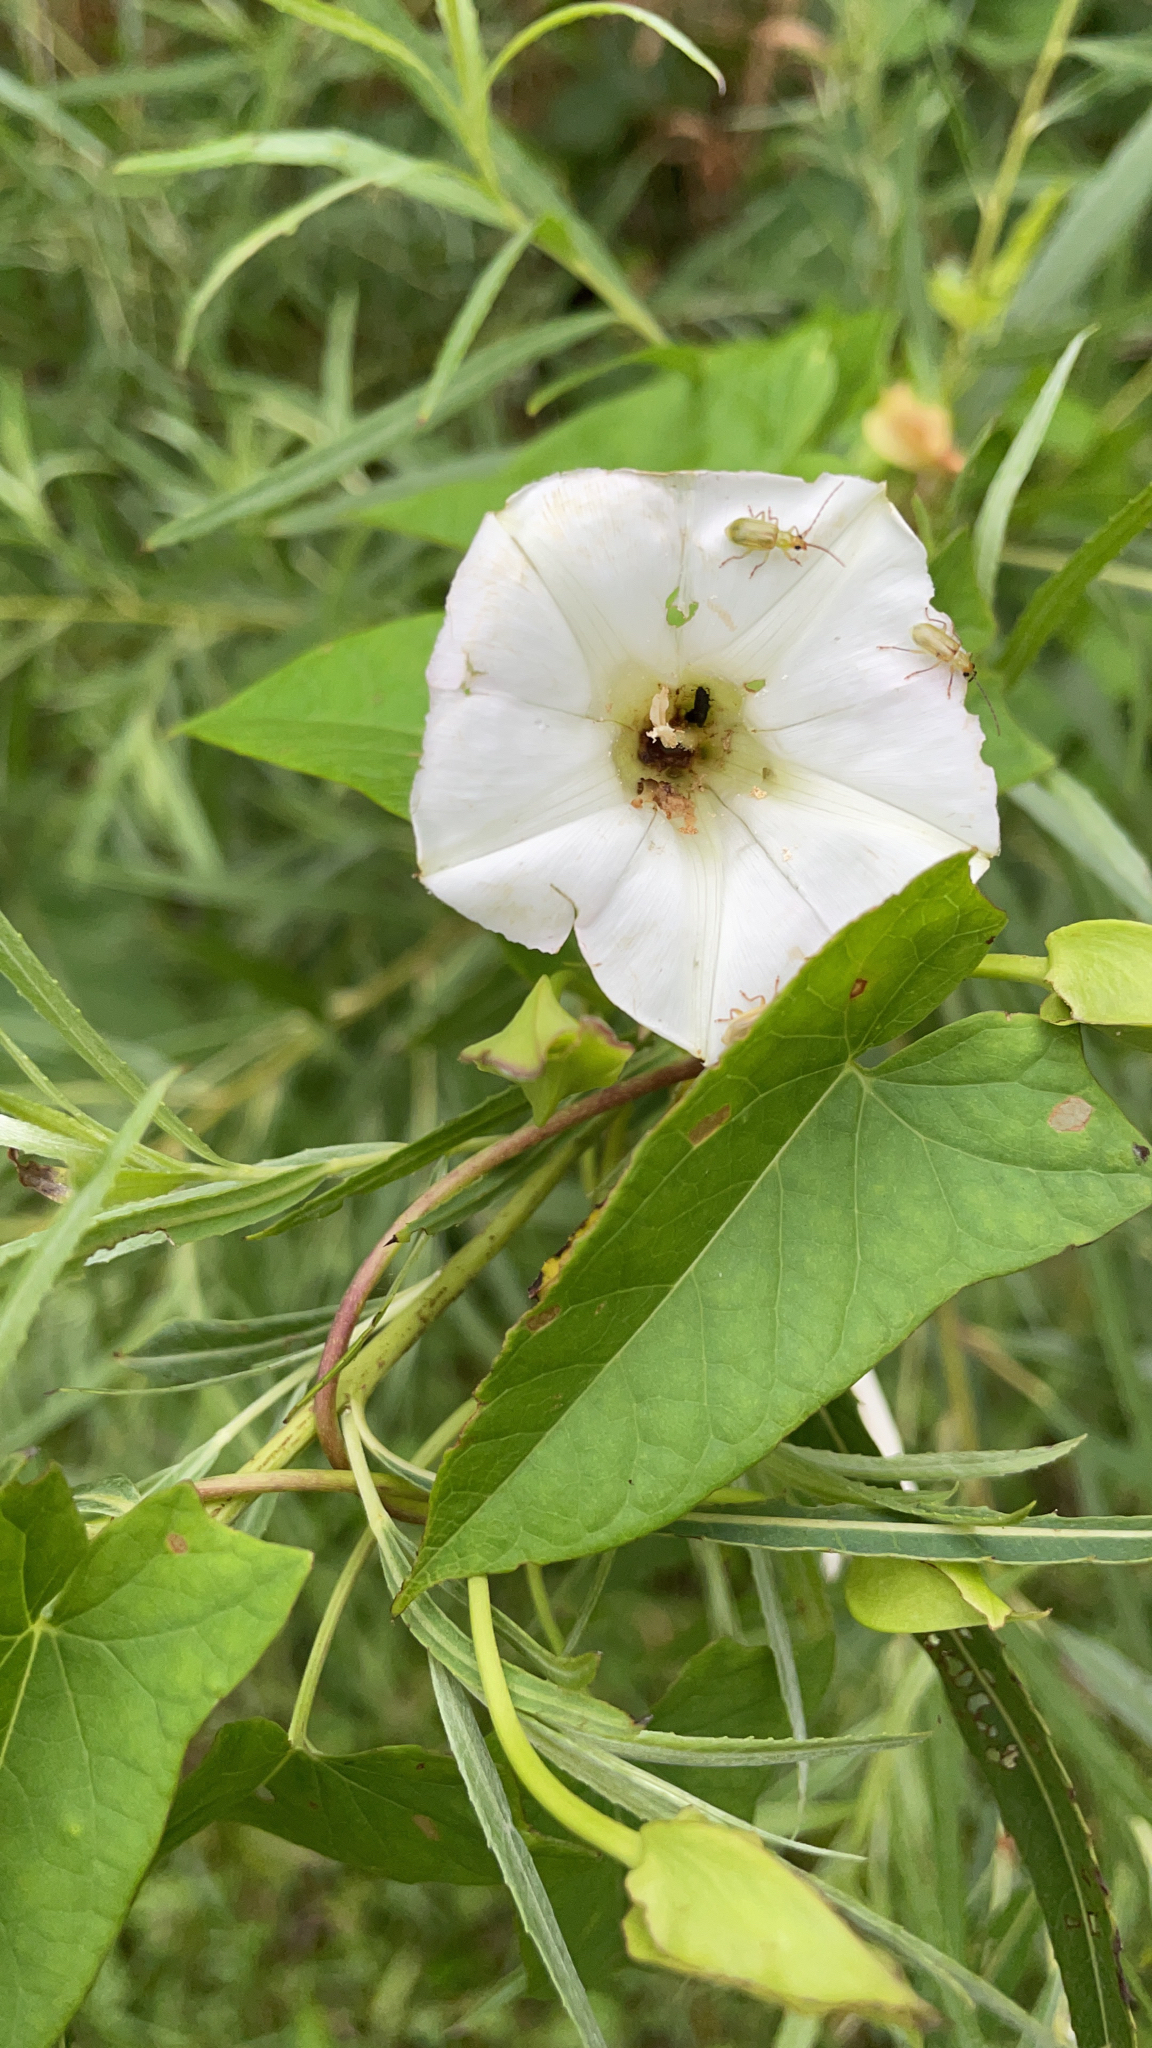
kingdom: Plantae
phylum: Tracheophyta
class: Magnoliopsida
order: Solanales
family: Convolvulaceae
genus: Calystegia
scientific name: Calystegia sepium
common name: Hedge bindweed
